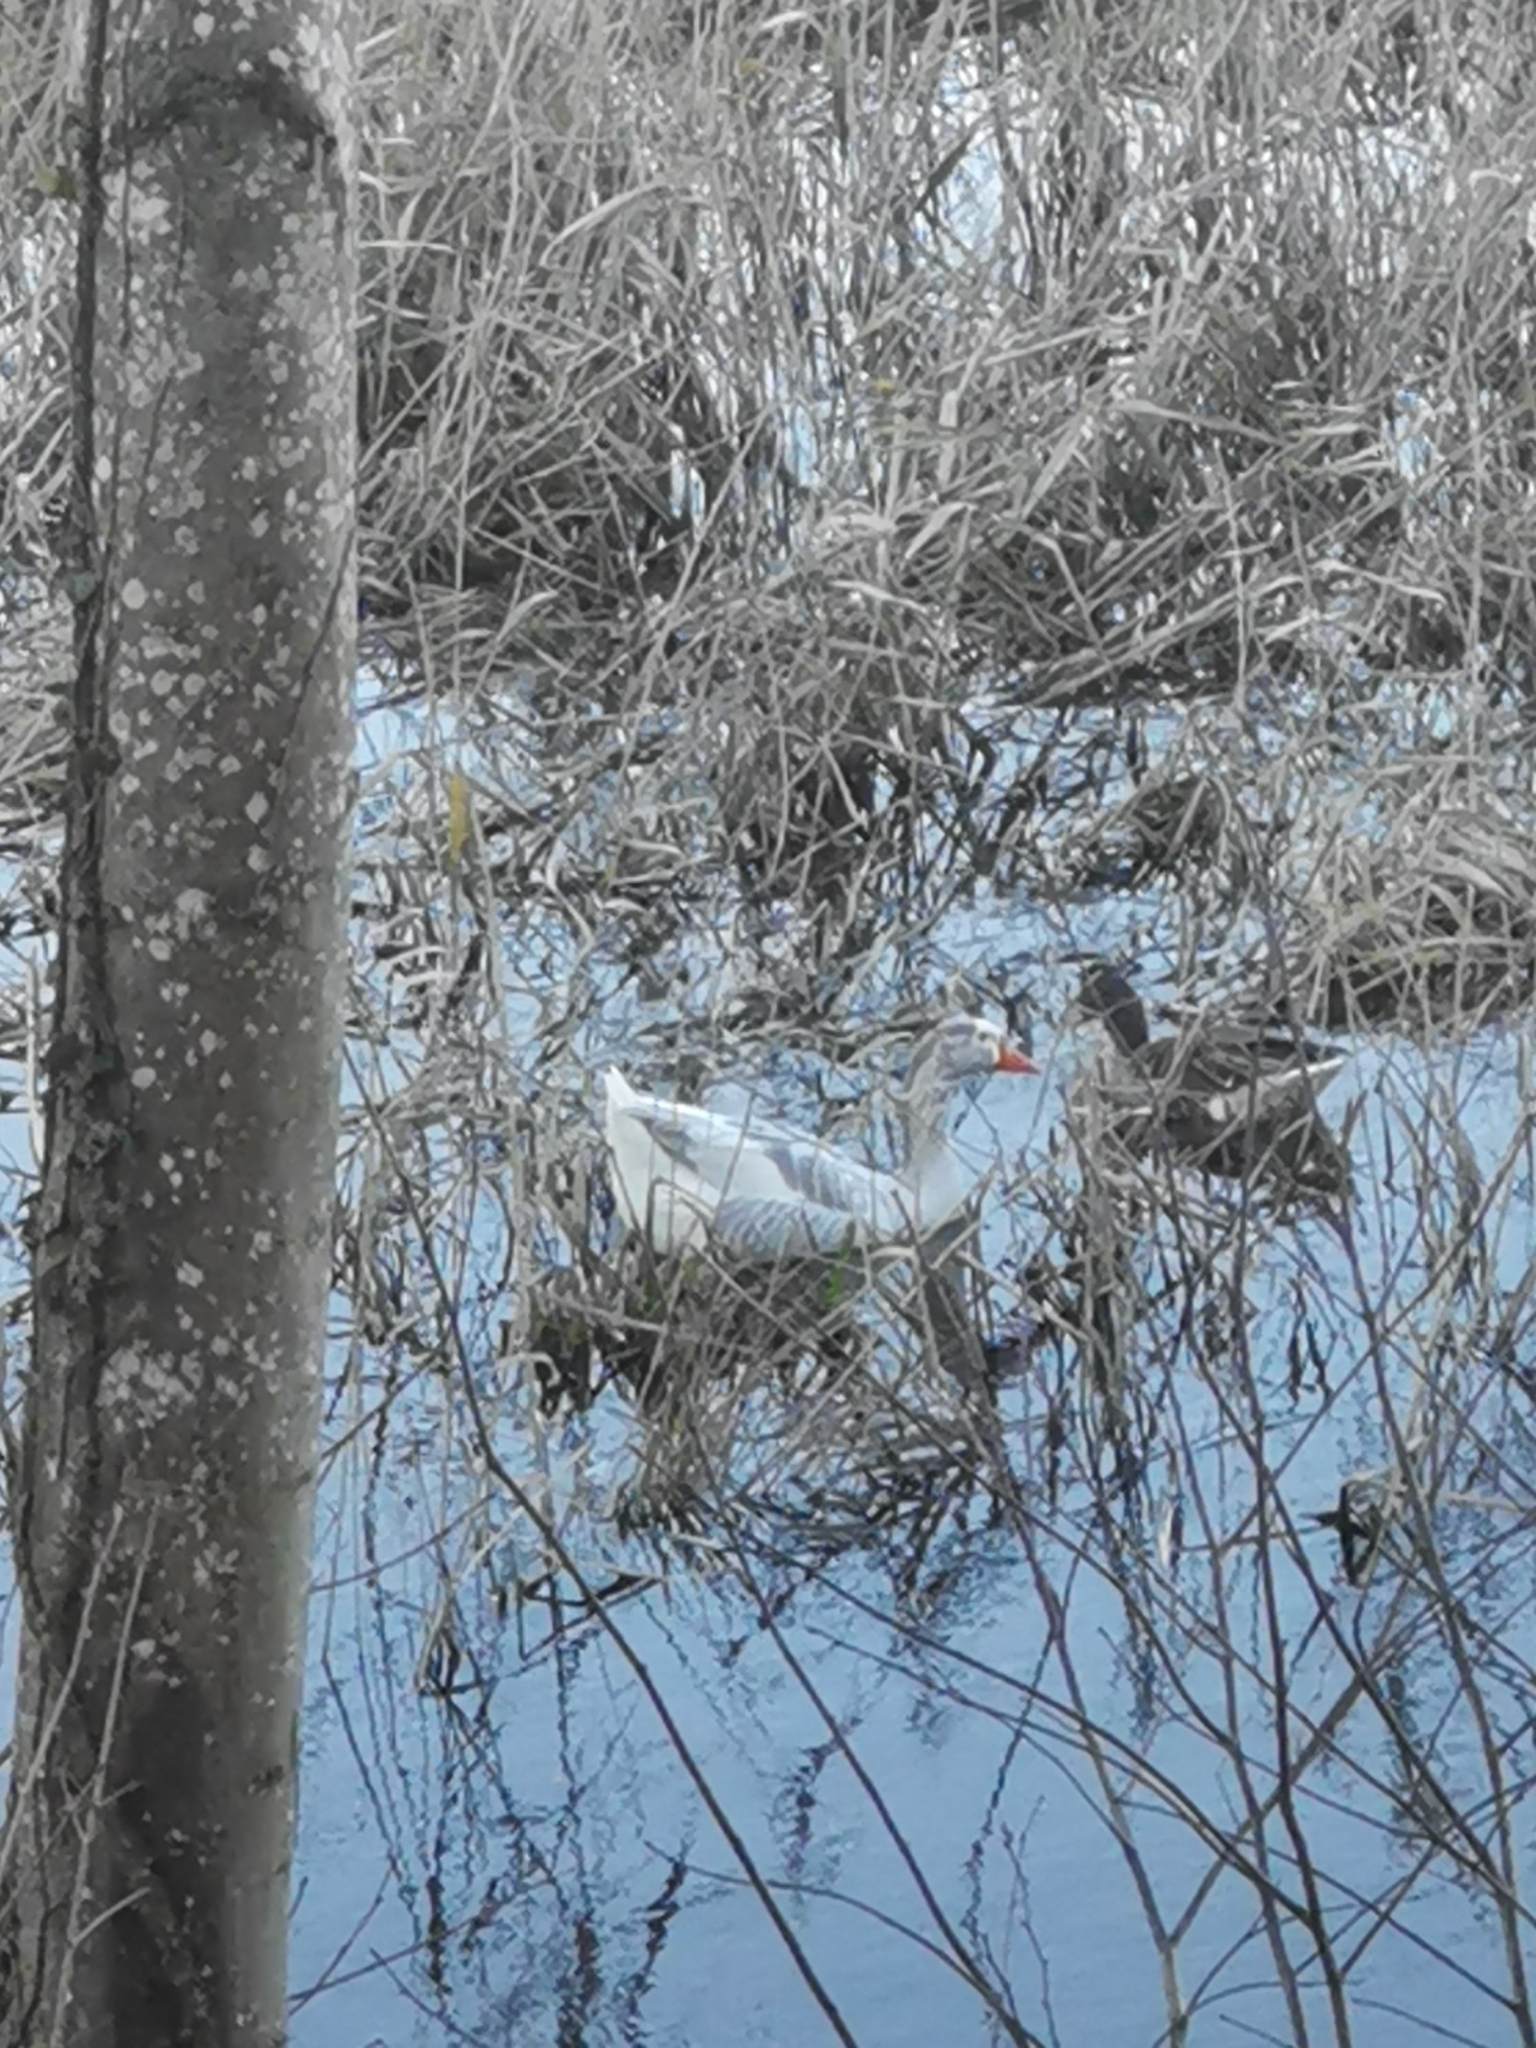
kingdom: Animalia
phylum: Chordata
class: Aves
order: Anseriformes
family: Anatidae
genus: Anser
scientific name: Anser anser
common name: Greylag goose
